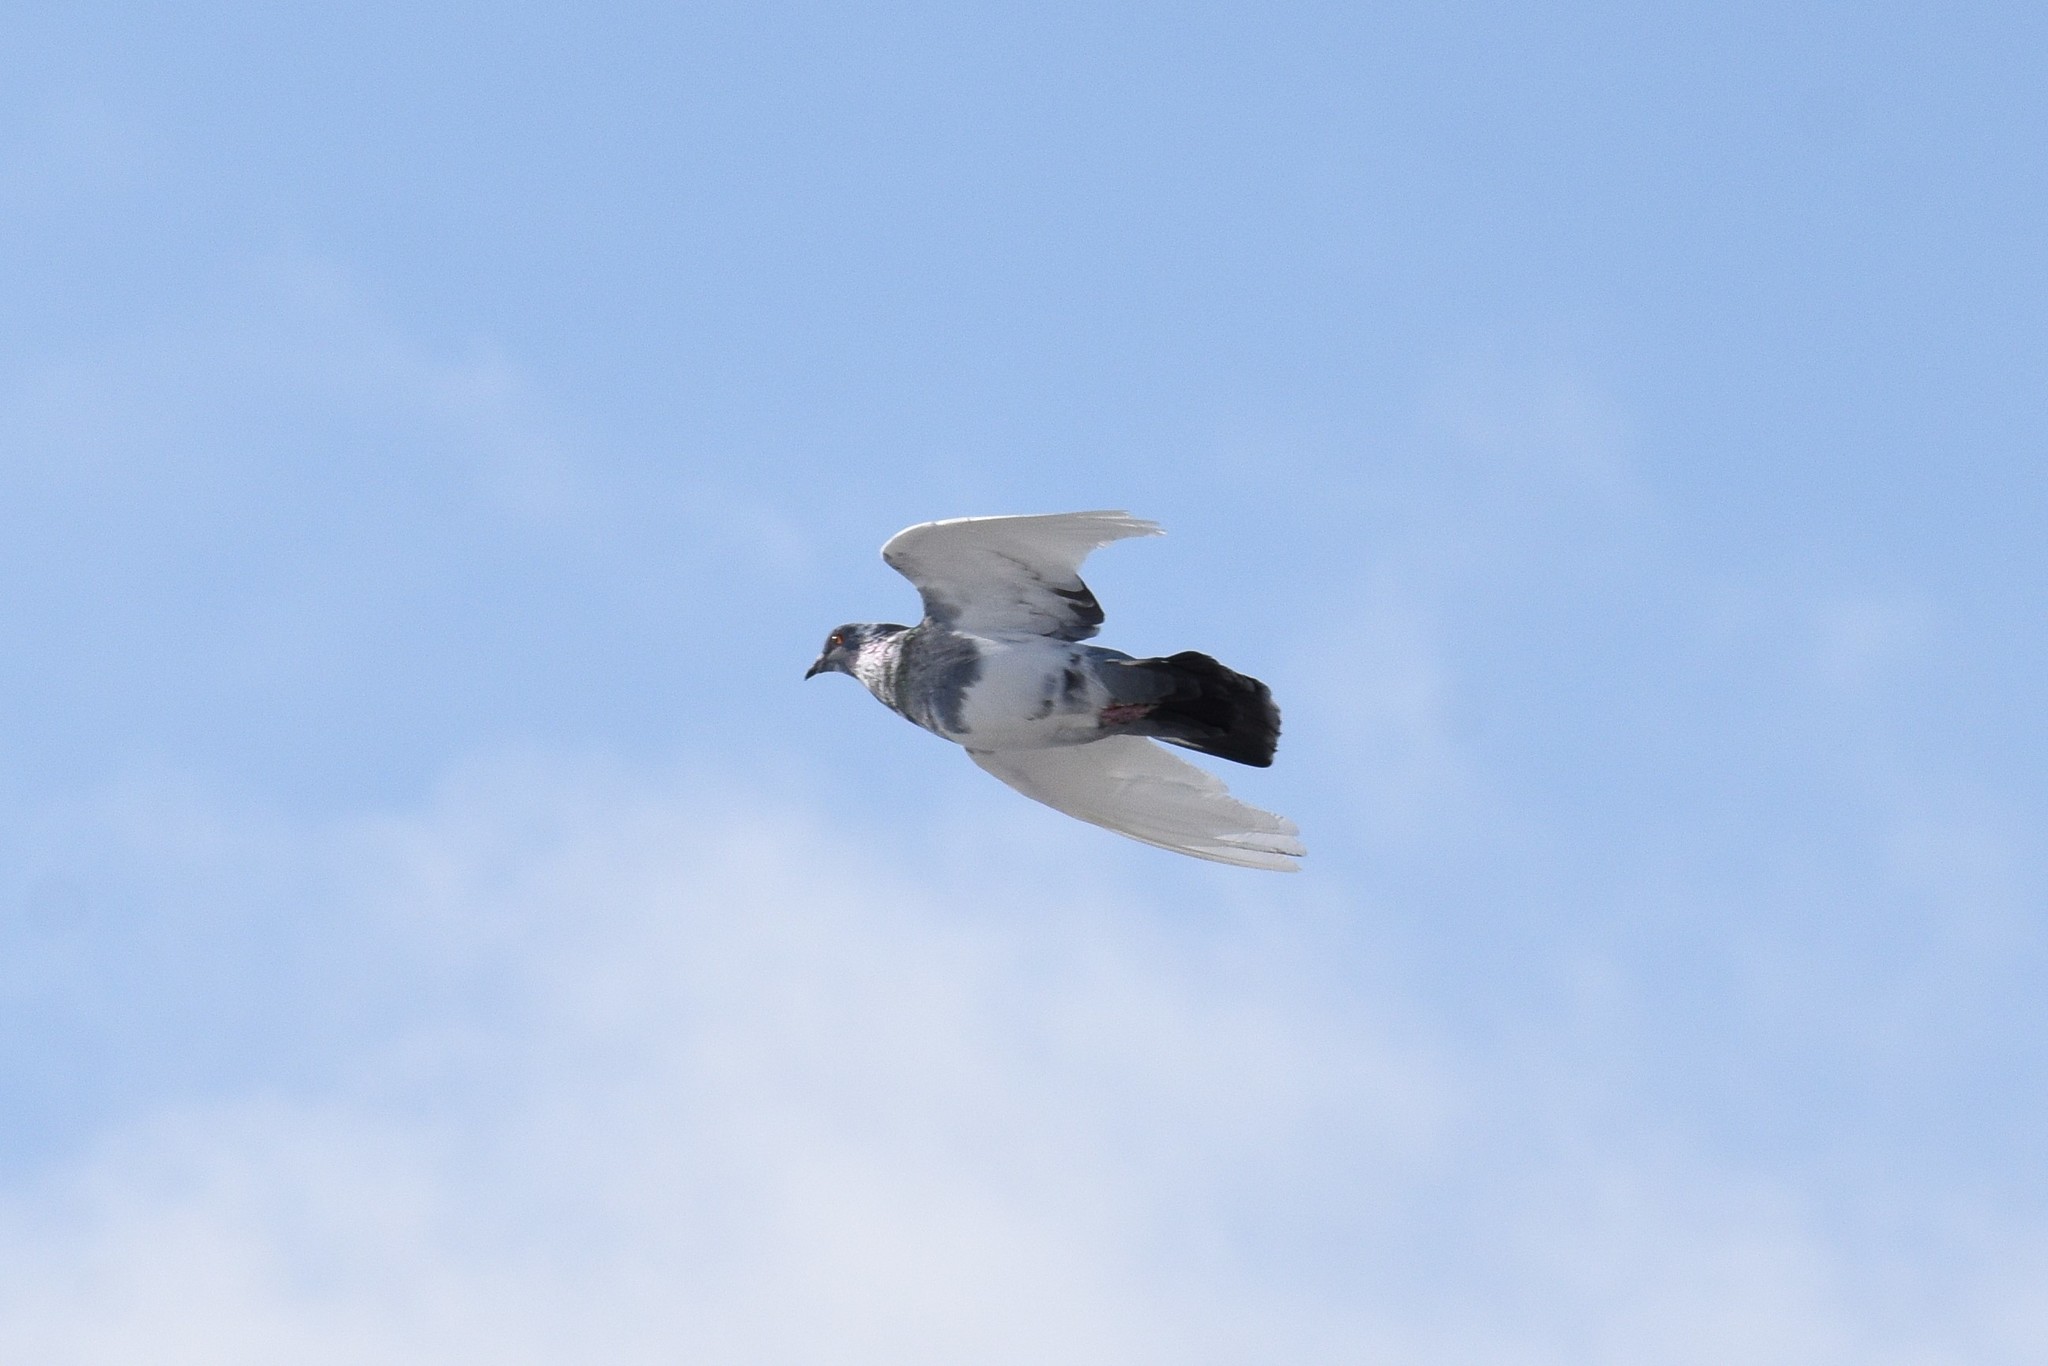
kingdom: Animalia
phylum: Chordata
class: Aves
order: Columbiformes
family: Columbidae
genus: Columba
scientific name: Columba livia
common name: Rock pigeon
